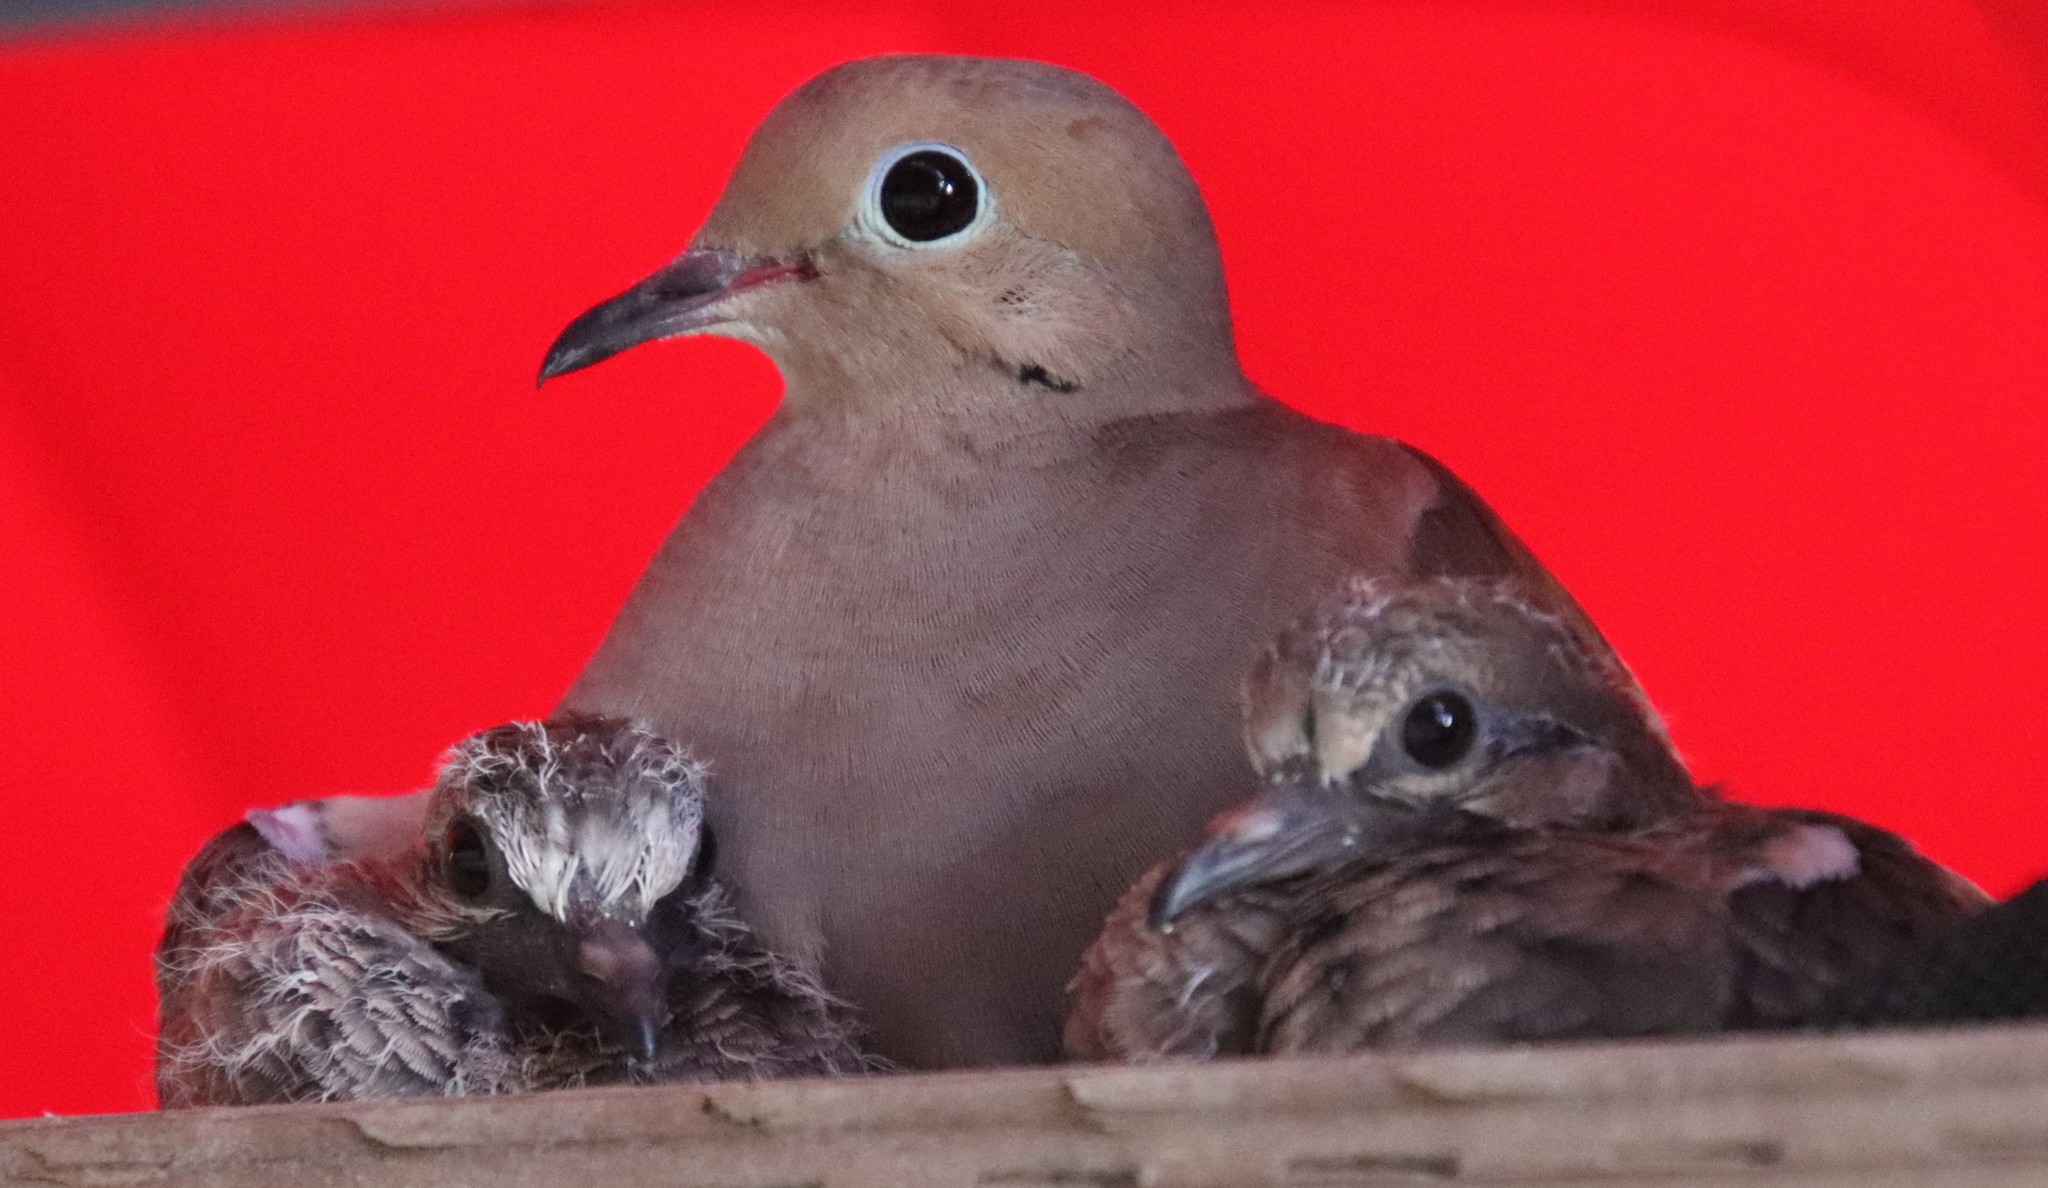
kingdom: Animalia
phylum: Chordata
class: Aves
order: Columbiformes
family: Columbidae
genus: Zenaida
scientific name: Zenaida macroura
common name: Mourning dove
